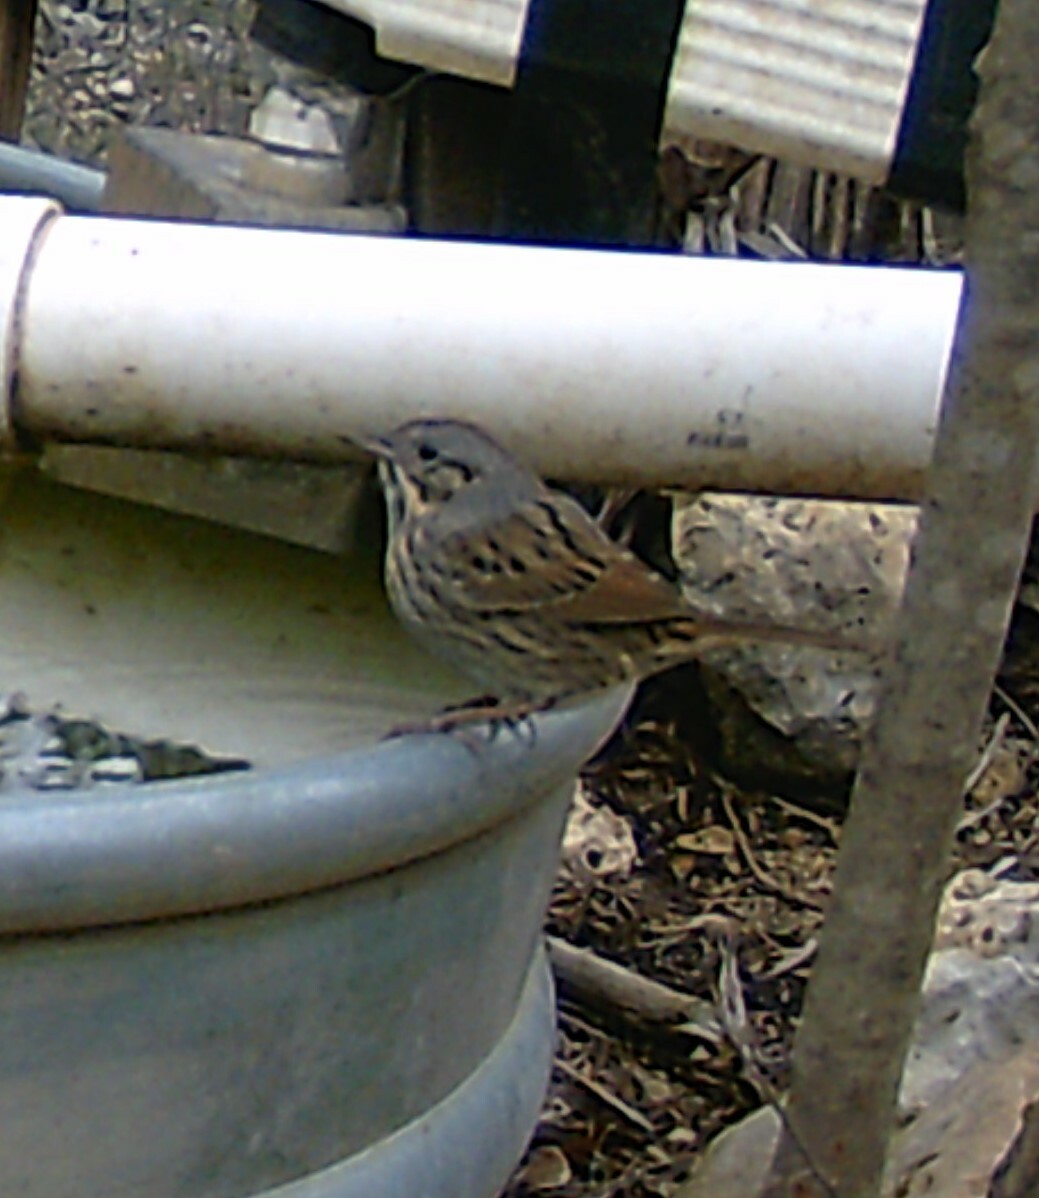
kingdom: Animalia
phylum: Chordata
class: Aves
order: Passeriformes
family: Passerellidae
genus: Melospiza
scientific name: Melospiza lincolnii
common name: Lincoln's sparrow
